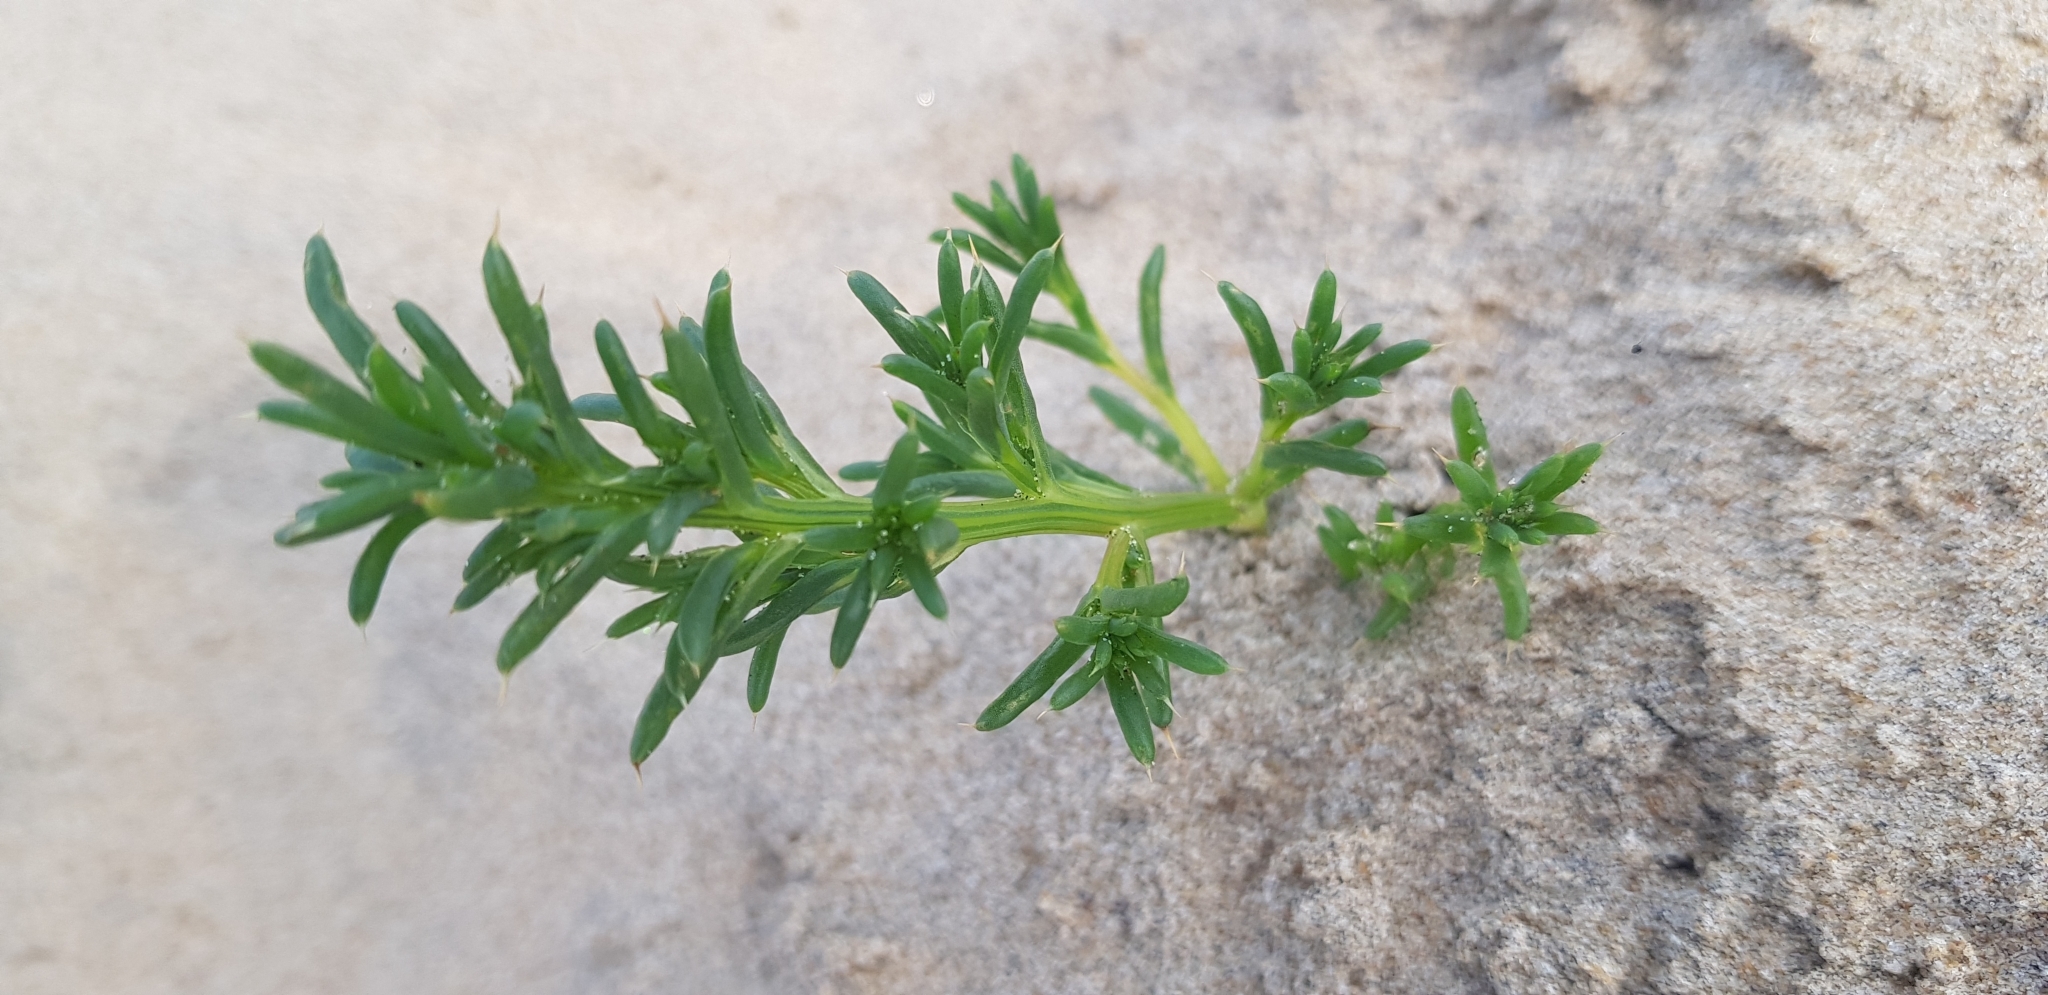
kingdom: Plantae
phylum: Tracheophyta
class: Magnoliopsida
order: Caryophyllales
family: Amaranthaceae
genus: Salsola
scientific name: Salsola kali
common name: Saltwort
